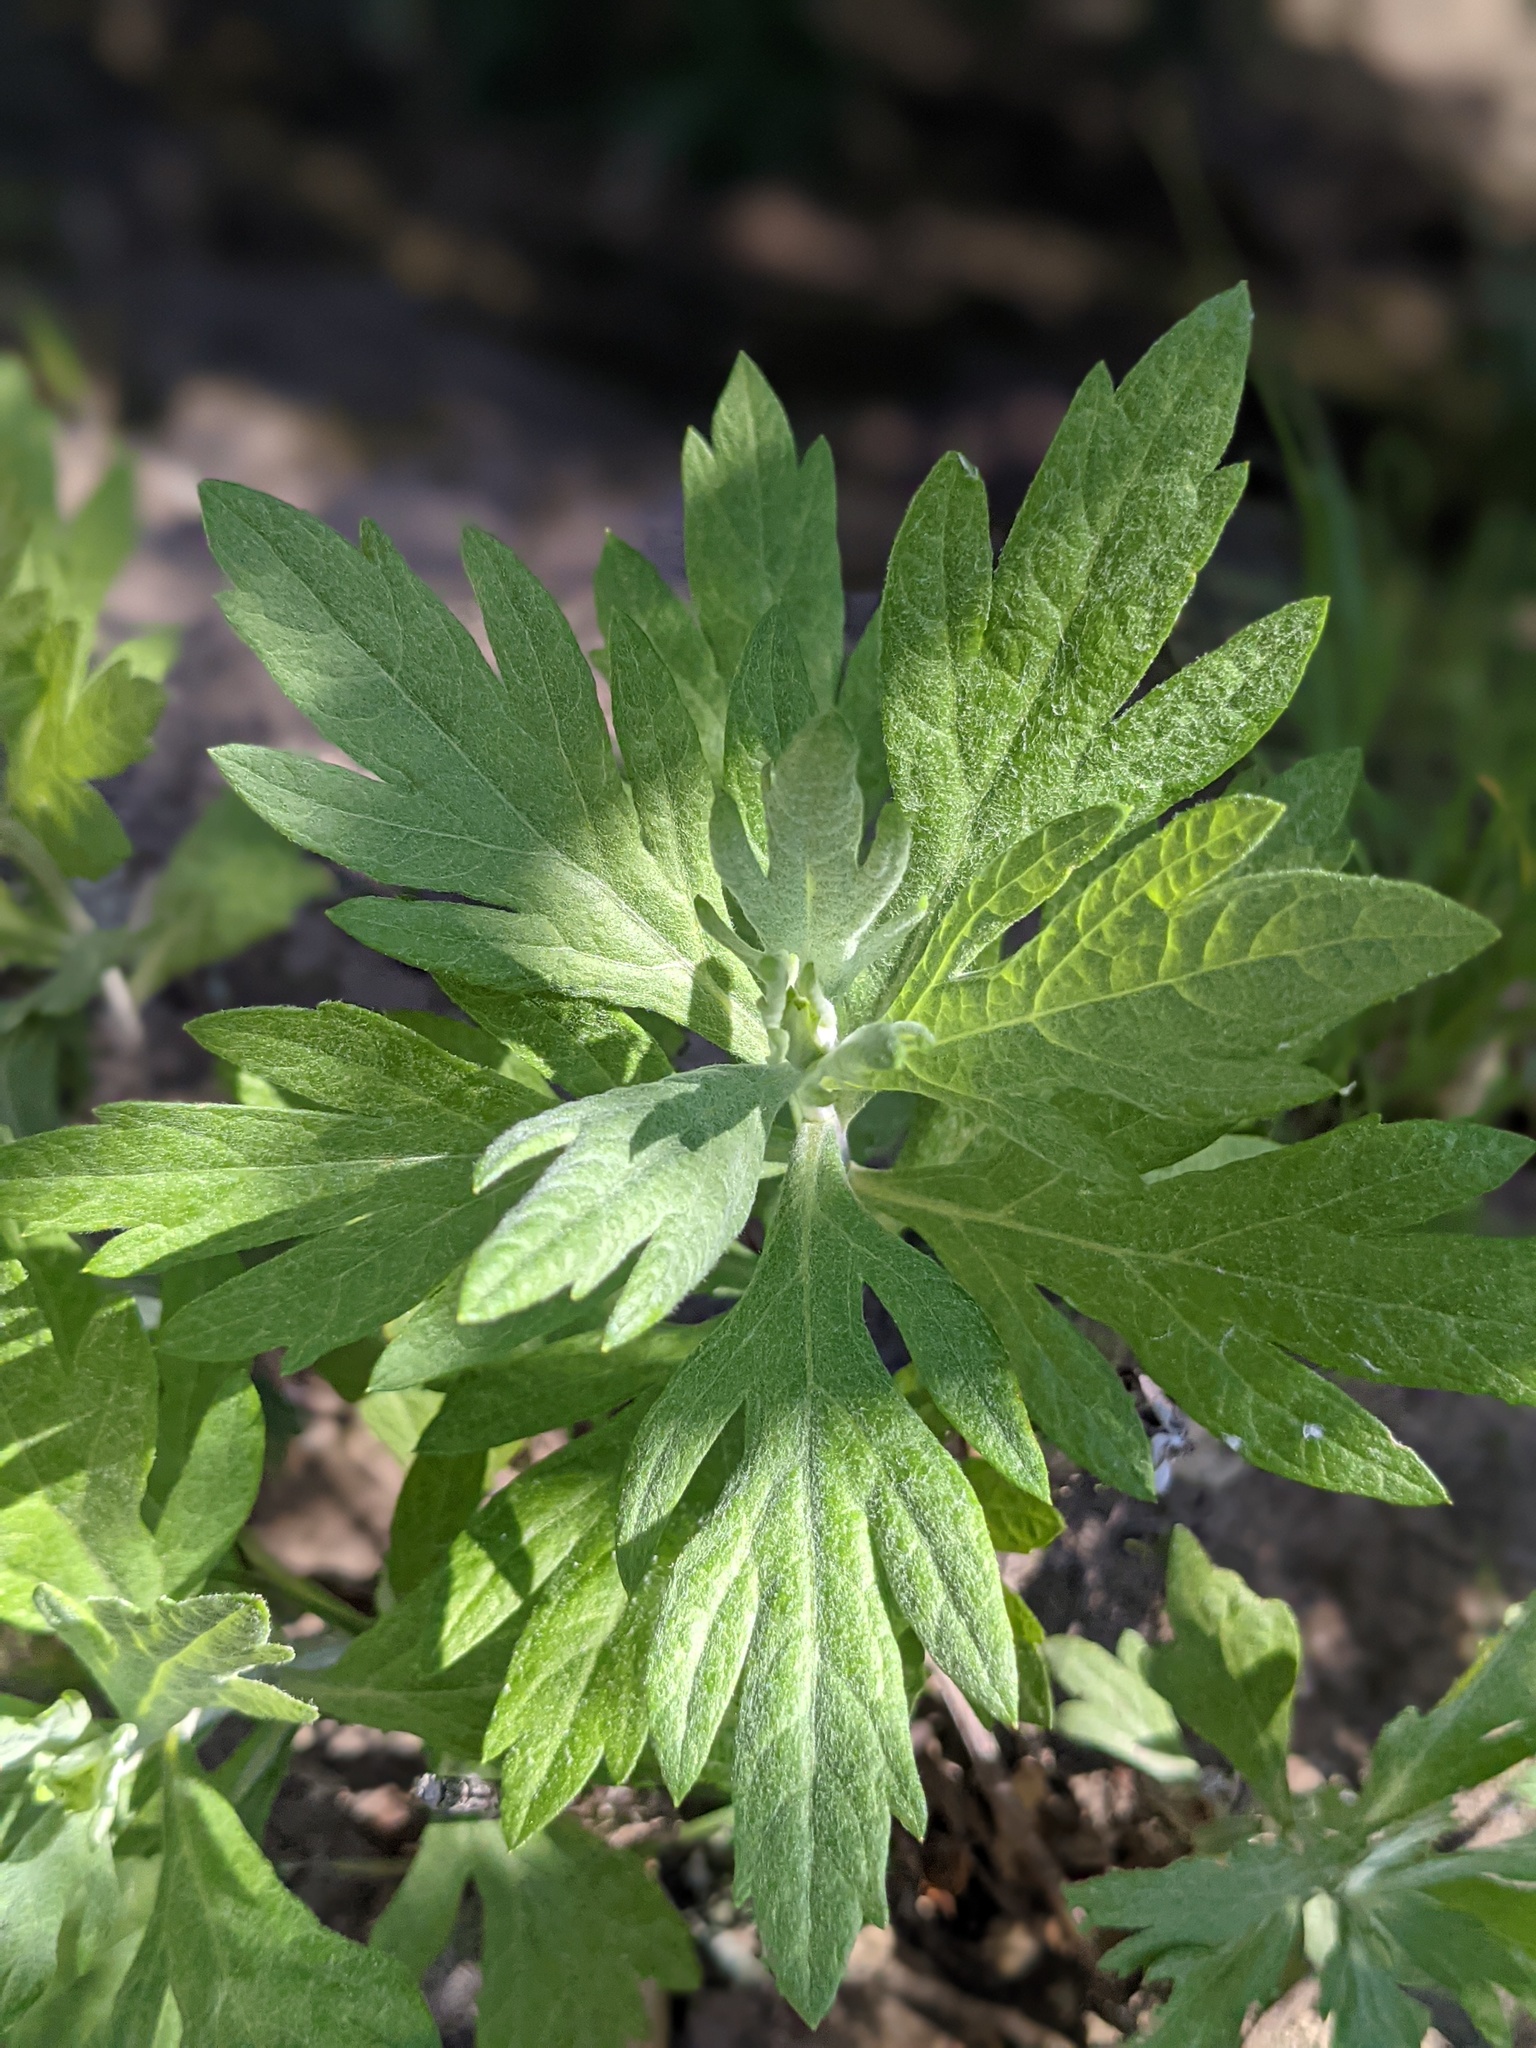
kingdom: Plantae
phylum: Tracheophyta
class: Magnoliopsida
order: Asterales
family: Asteraceae
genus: Artemisia
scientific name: Artemisia douglasiana
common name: Northwest mugwort
